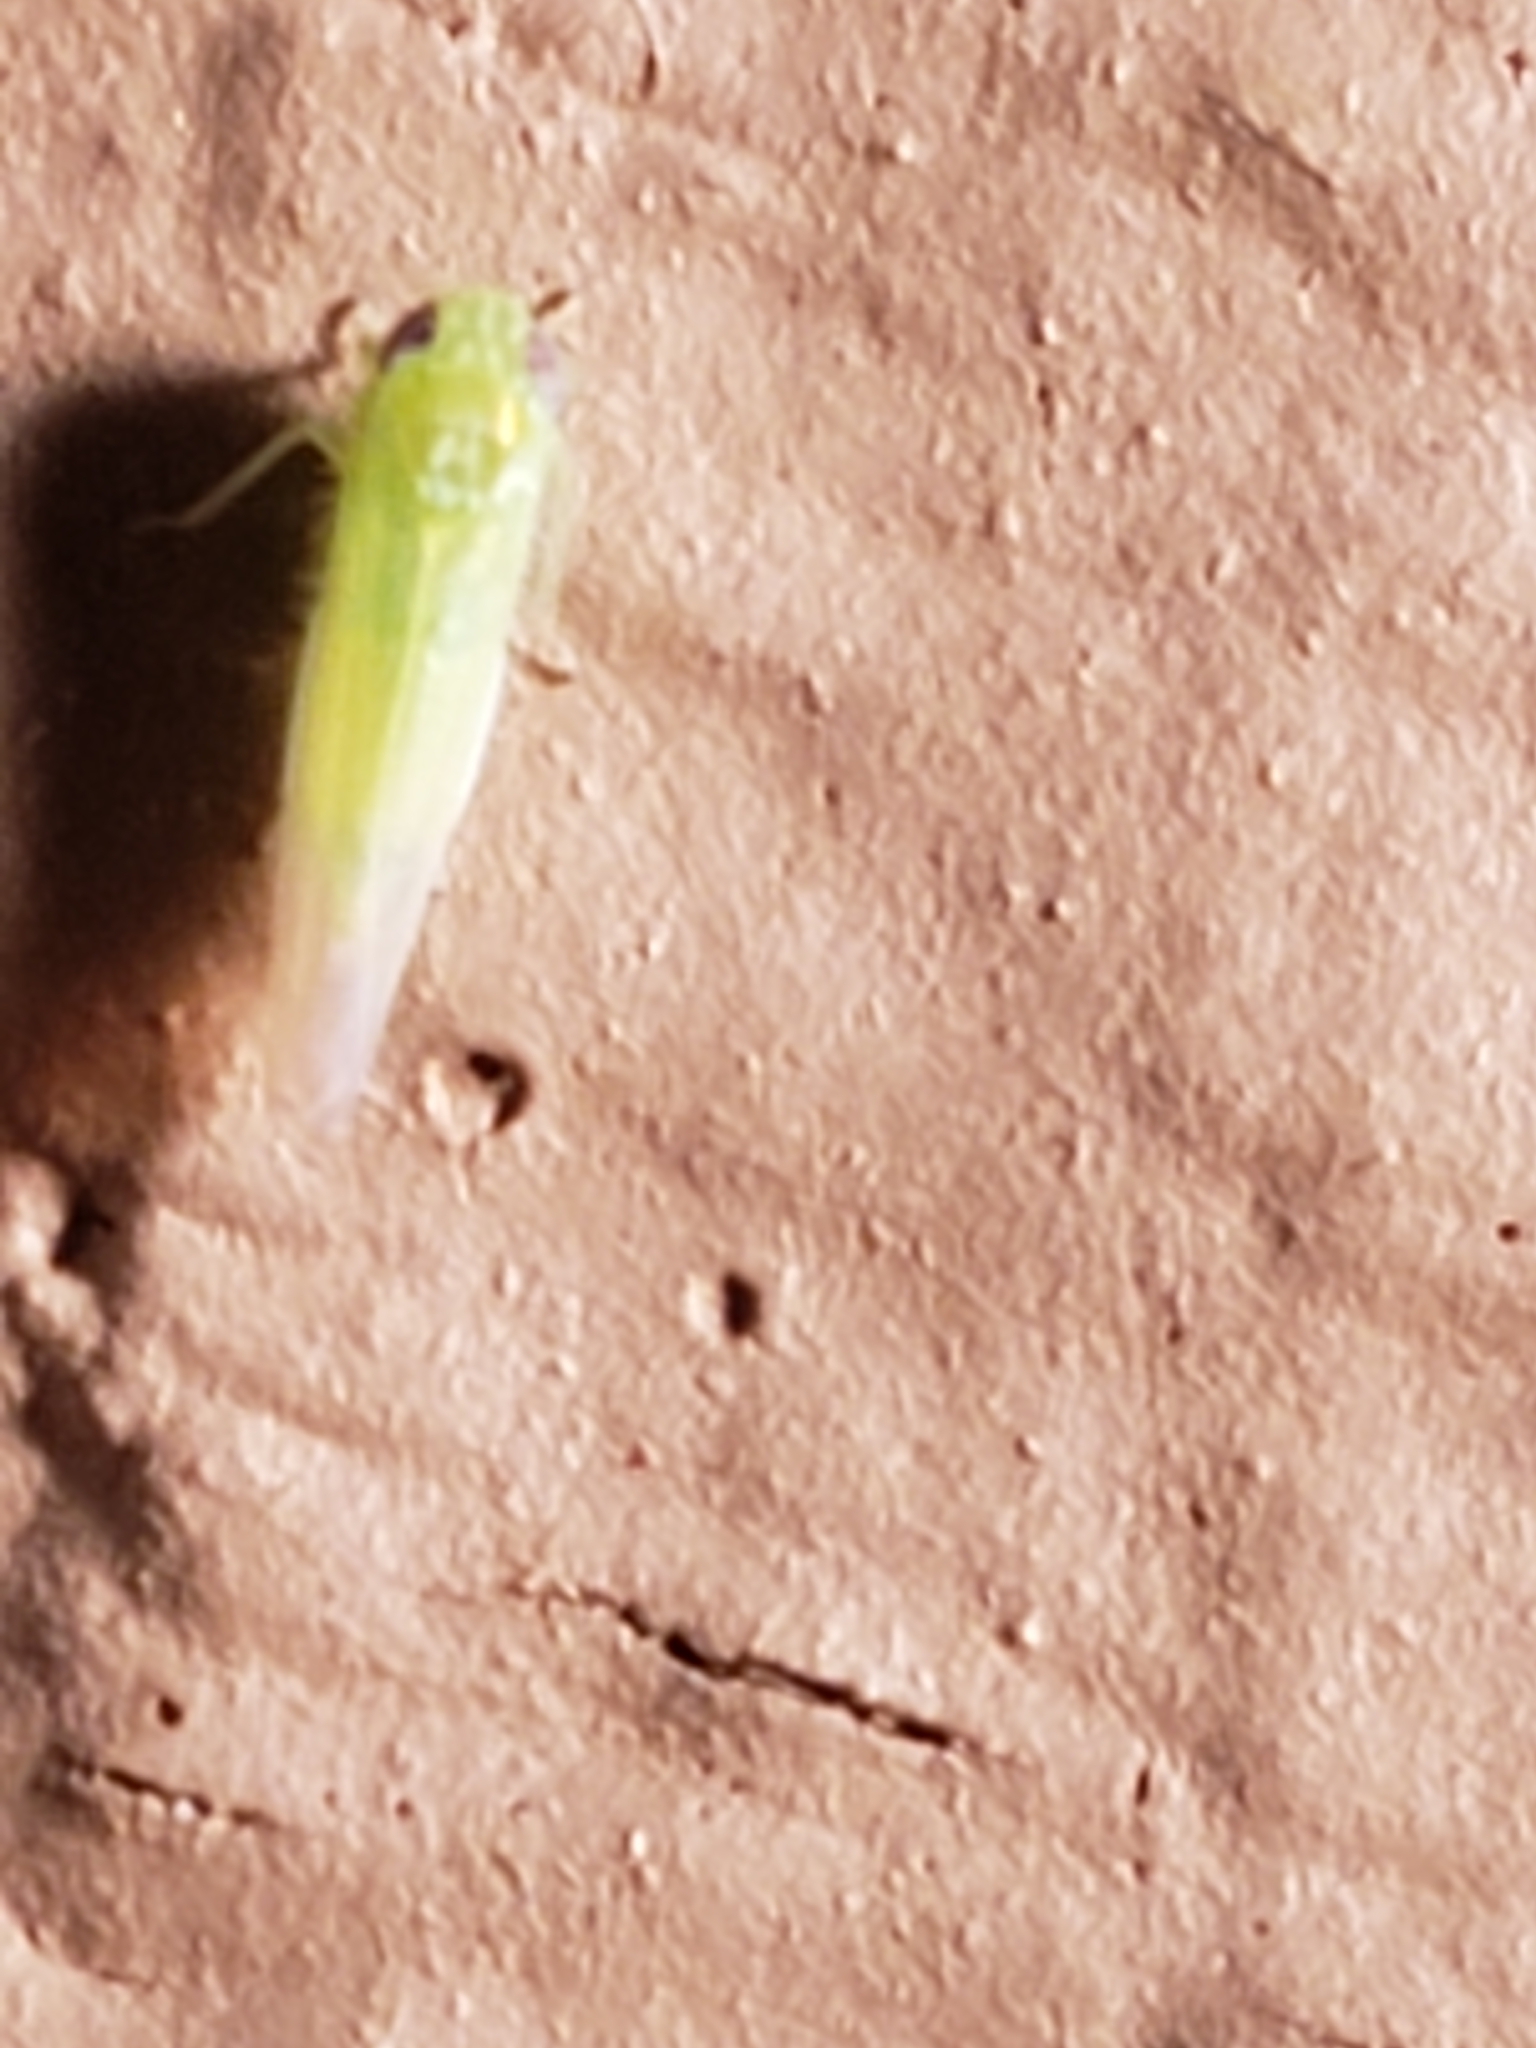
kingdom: Animalia
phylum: Arthropoda
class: Insecta
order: Hemiptera
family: Cicadellidae
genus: Empoasca
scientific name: Empoasca fabae
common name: Potato leafhopper
